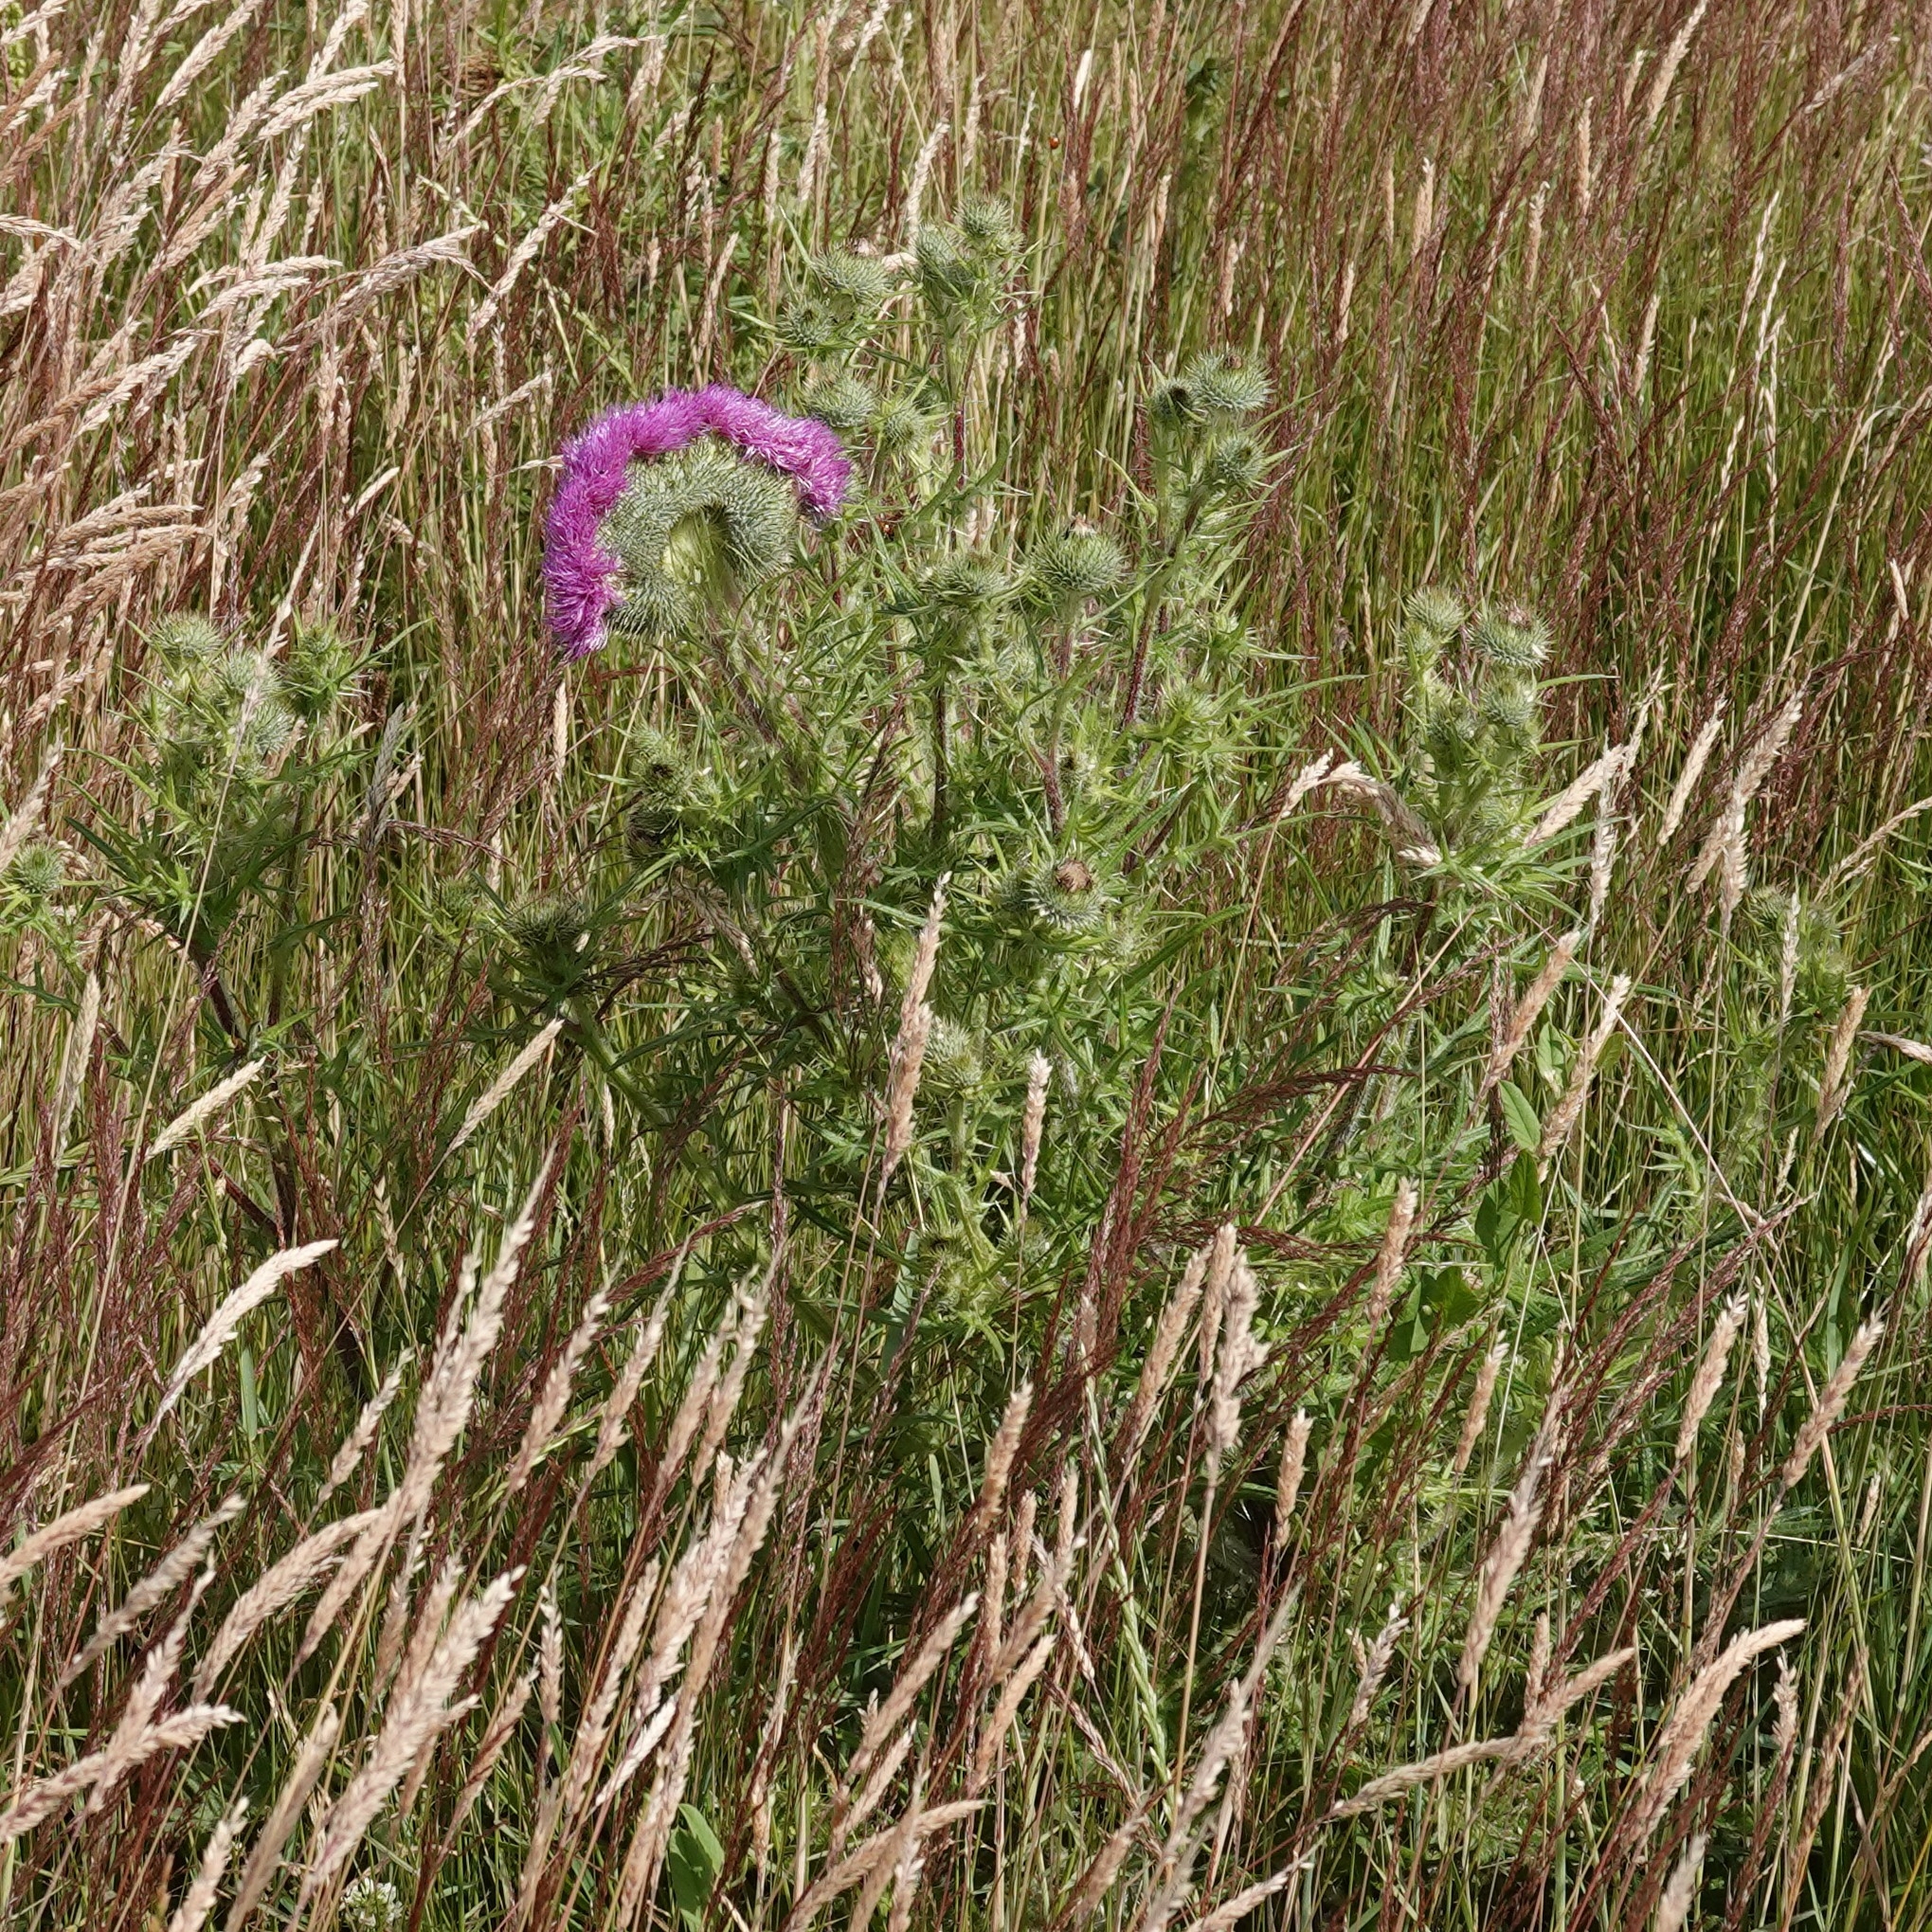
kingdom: Plantae
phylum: Tracheophyta
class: Magnoliopsida
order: Asterales
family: Asteraceae
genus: Cirsium
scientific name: Cirsium vulgare
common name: Bull thistle
